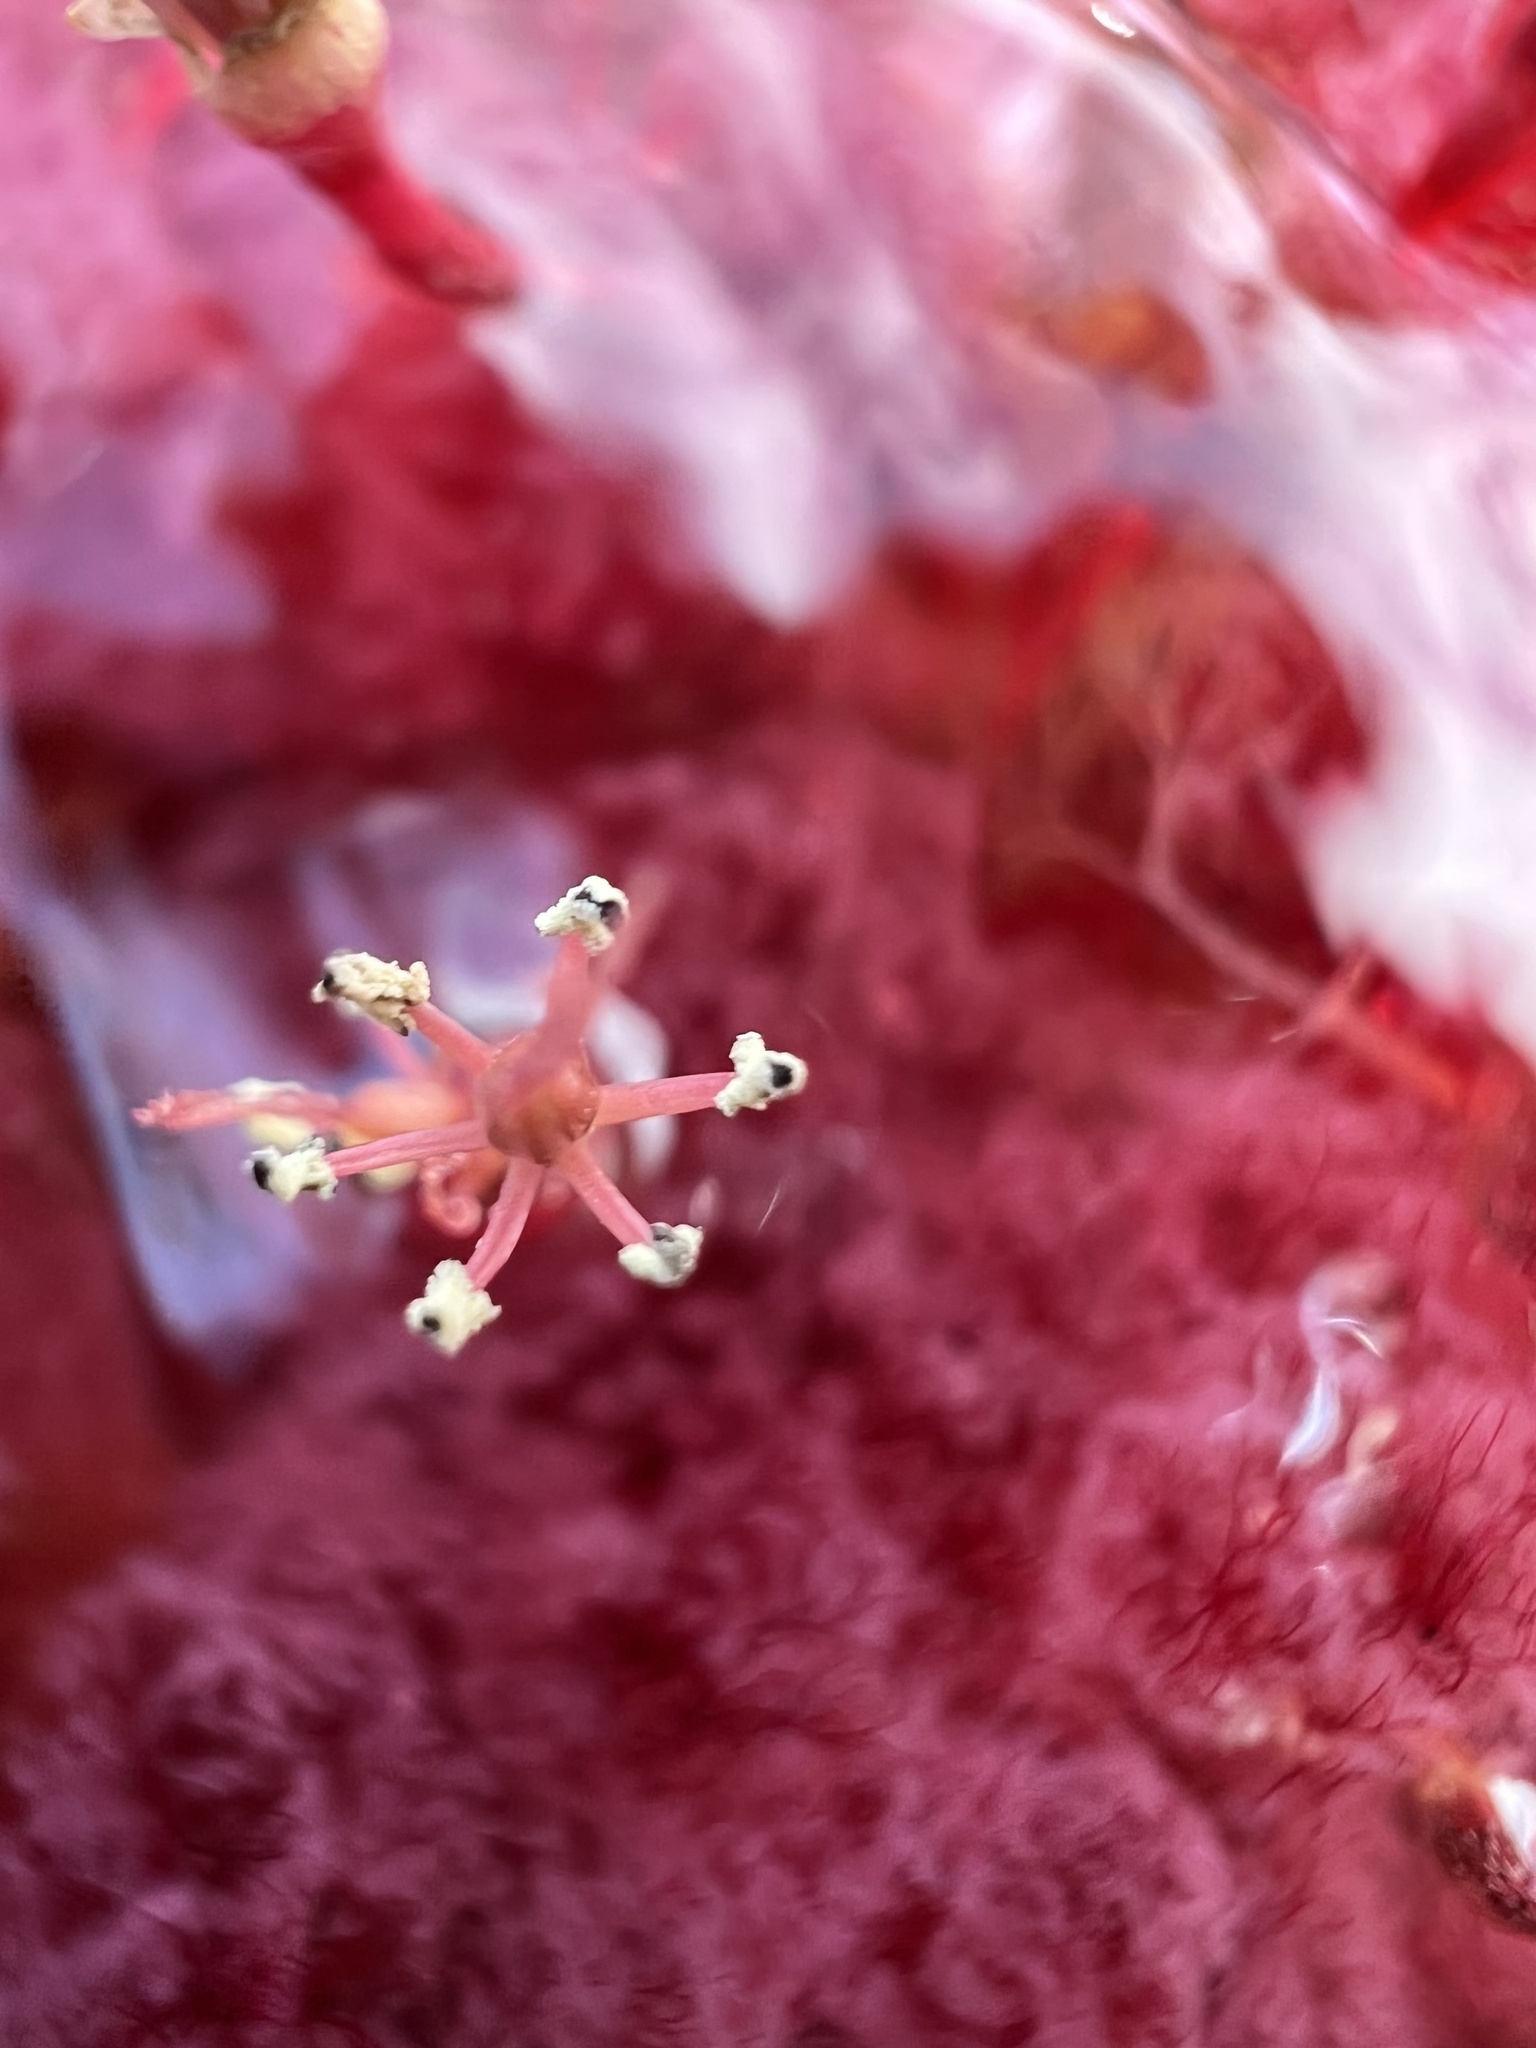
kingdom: Plantae
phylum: Tracheophyta
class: Magnoliopsida
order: Malpighiales
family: Podostemaceae
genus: Rhyncholacis
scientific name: Rhyncholacis clavigera
